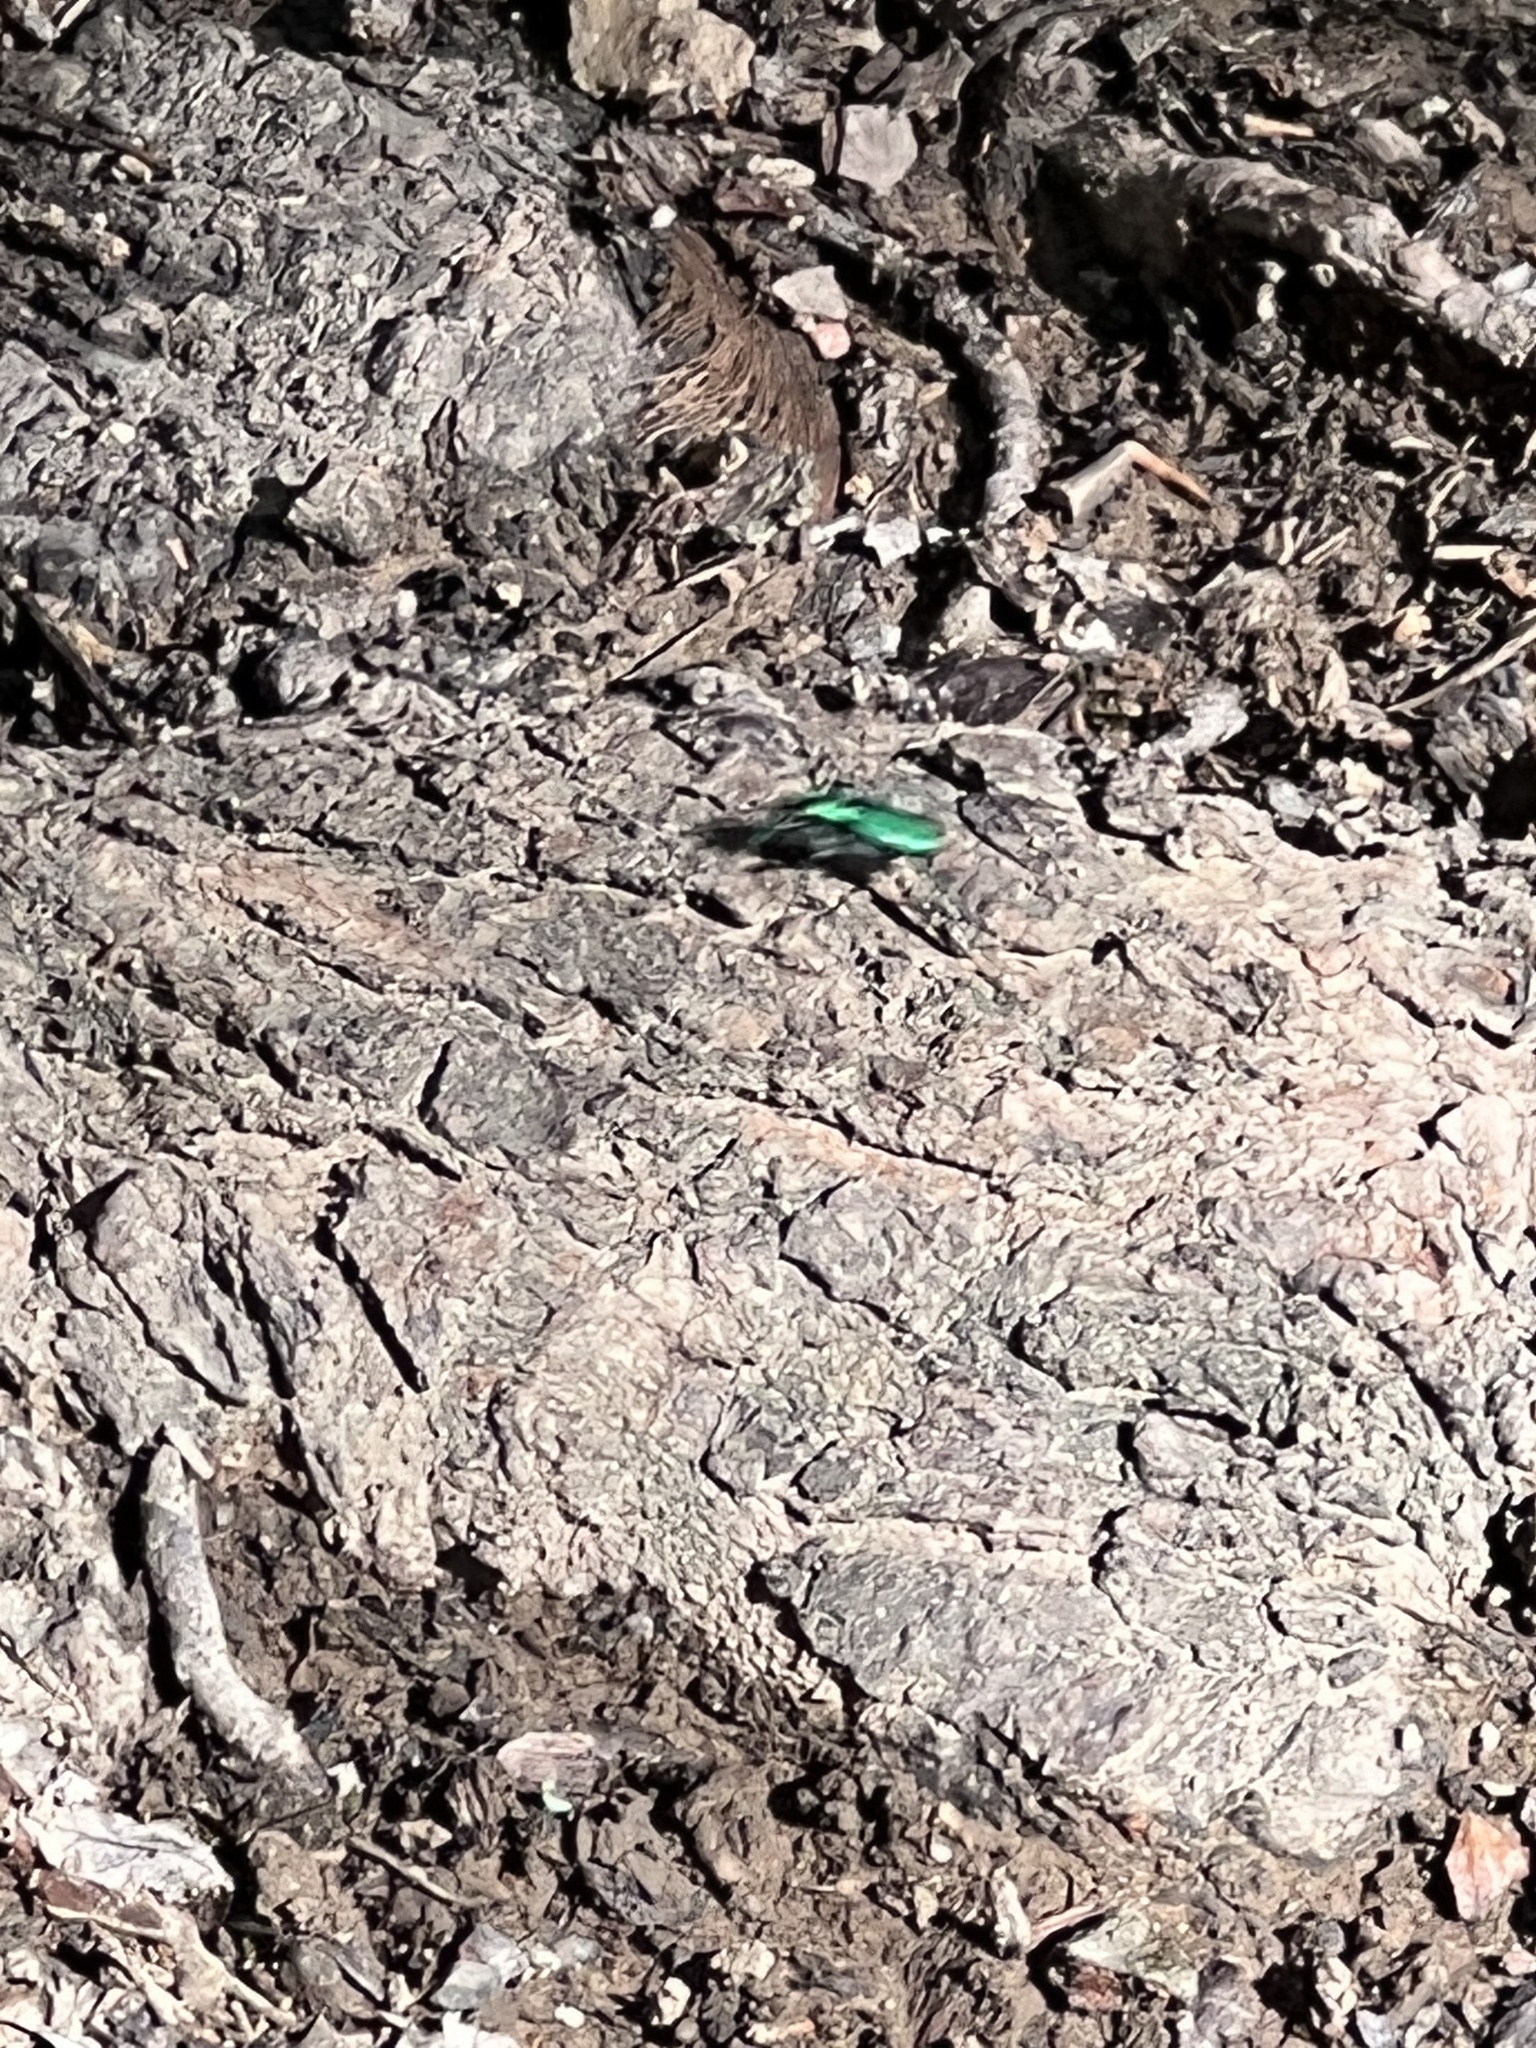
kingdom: Animalia
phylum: Arthropoda
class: Insecta
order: Coleoptera
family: Carabidae
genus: Cicindela
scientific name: Cicindela sexguttata
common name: Six-spotted tiger beetle
